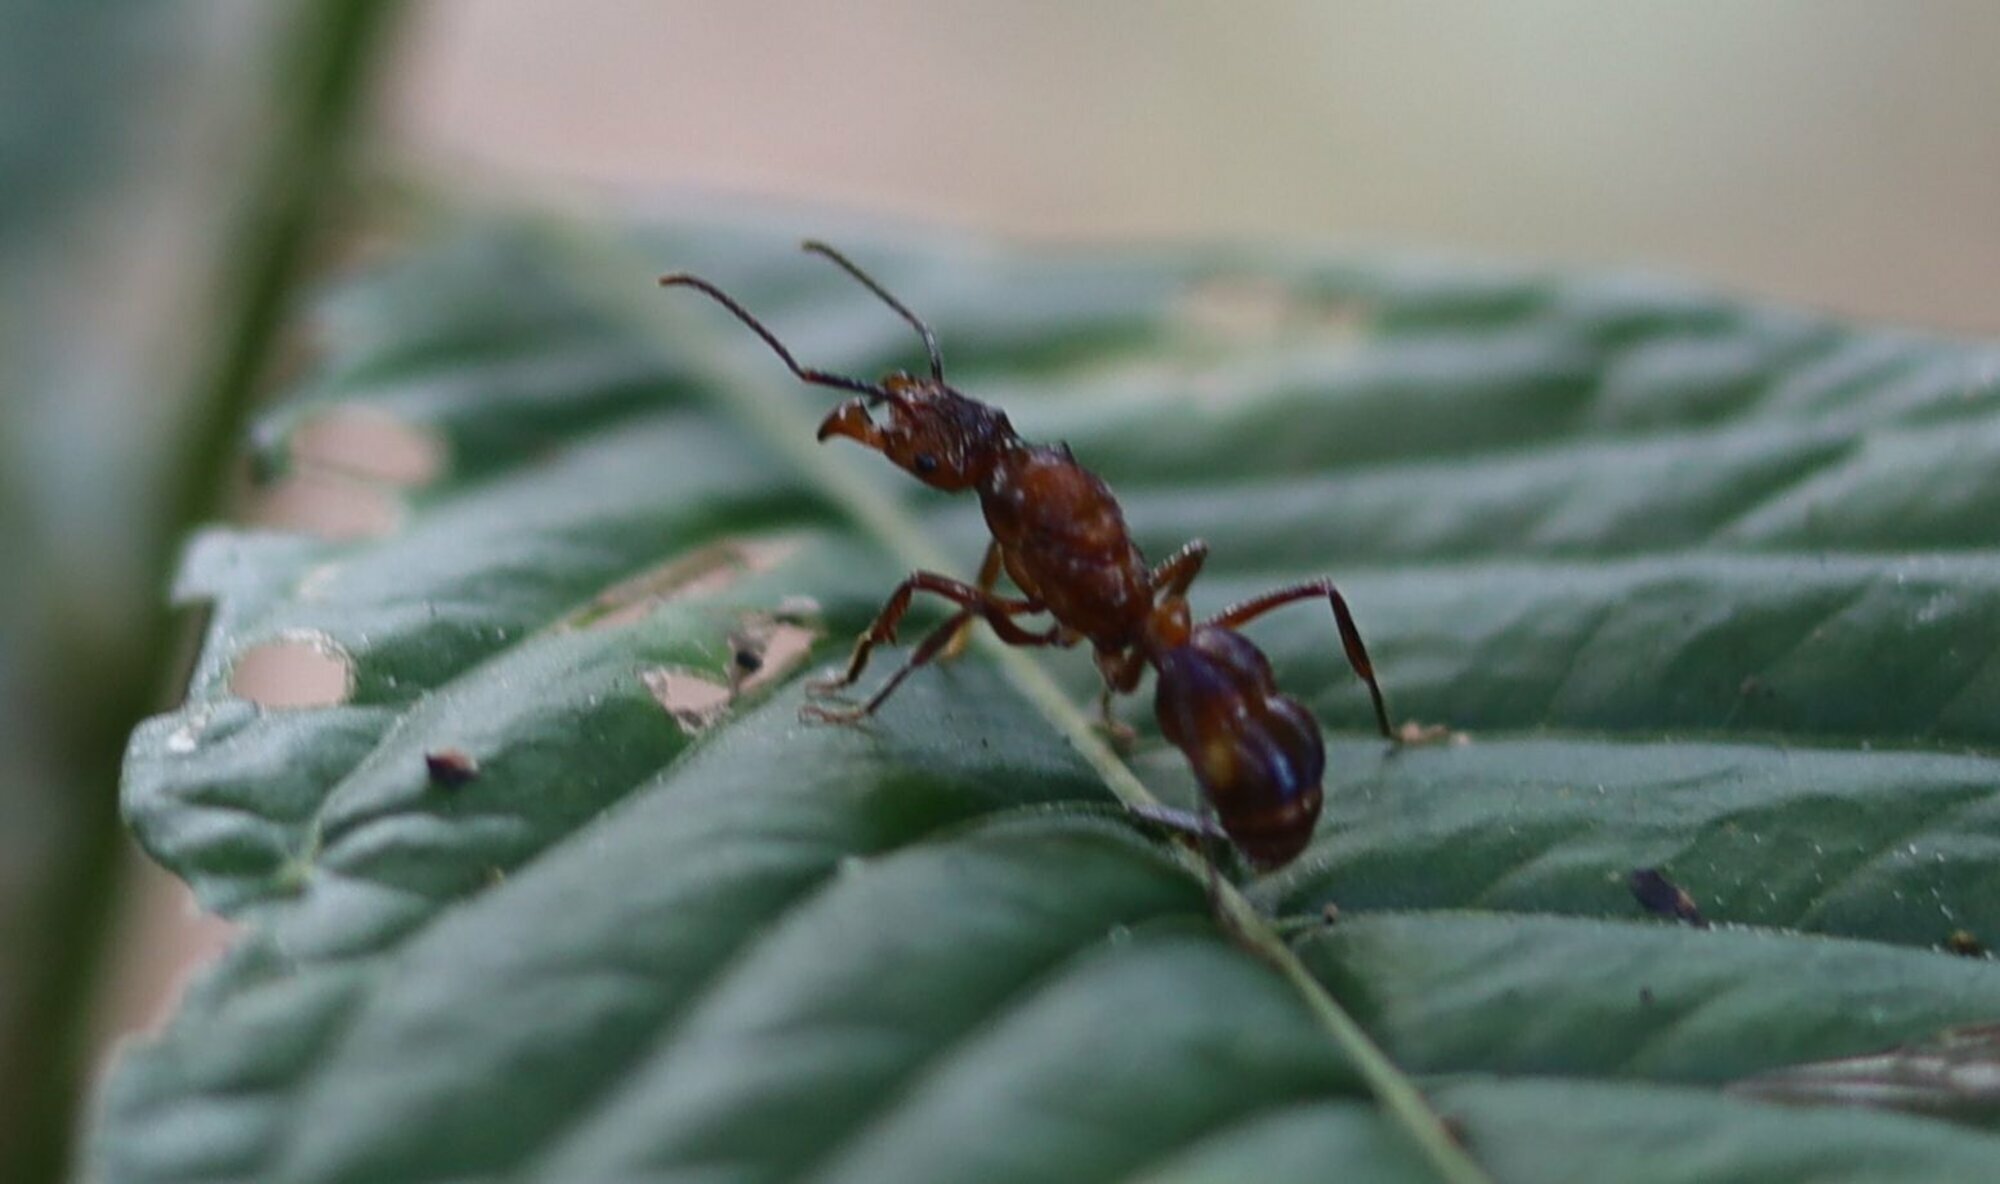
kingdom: Animalia
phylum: Arthropoda
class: Insecta
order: Hymenoptera
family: Formicidae
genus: Ectatomma
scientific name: Ectatomma tuberculatum
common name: Ant
